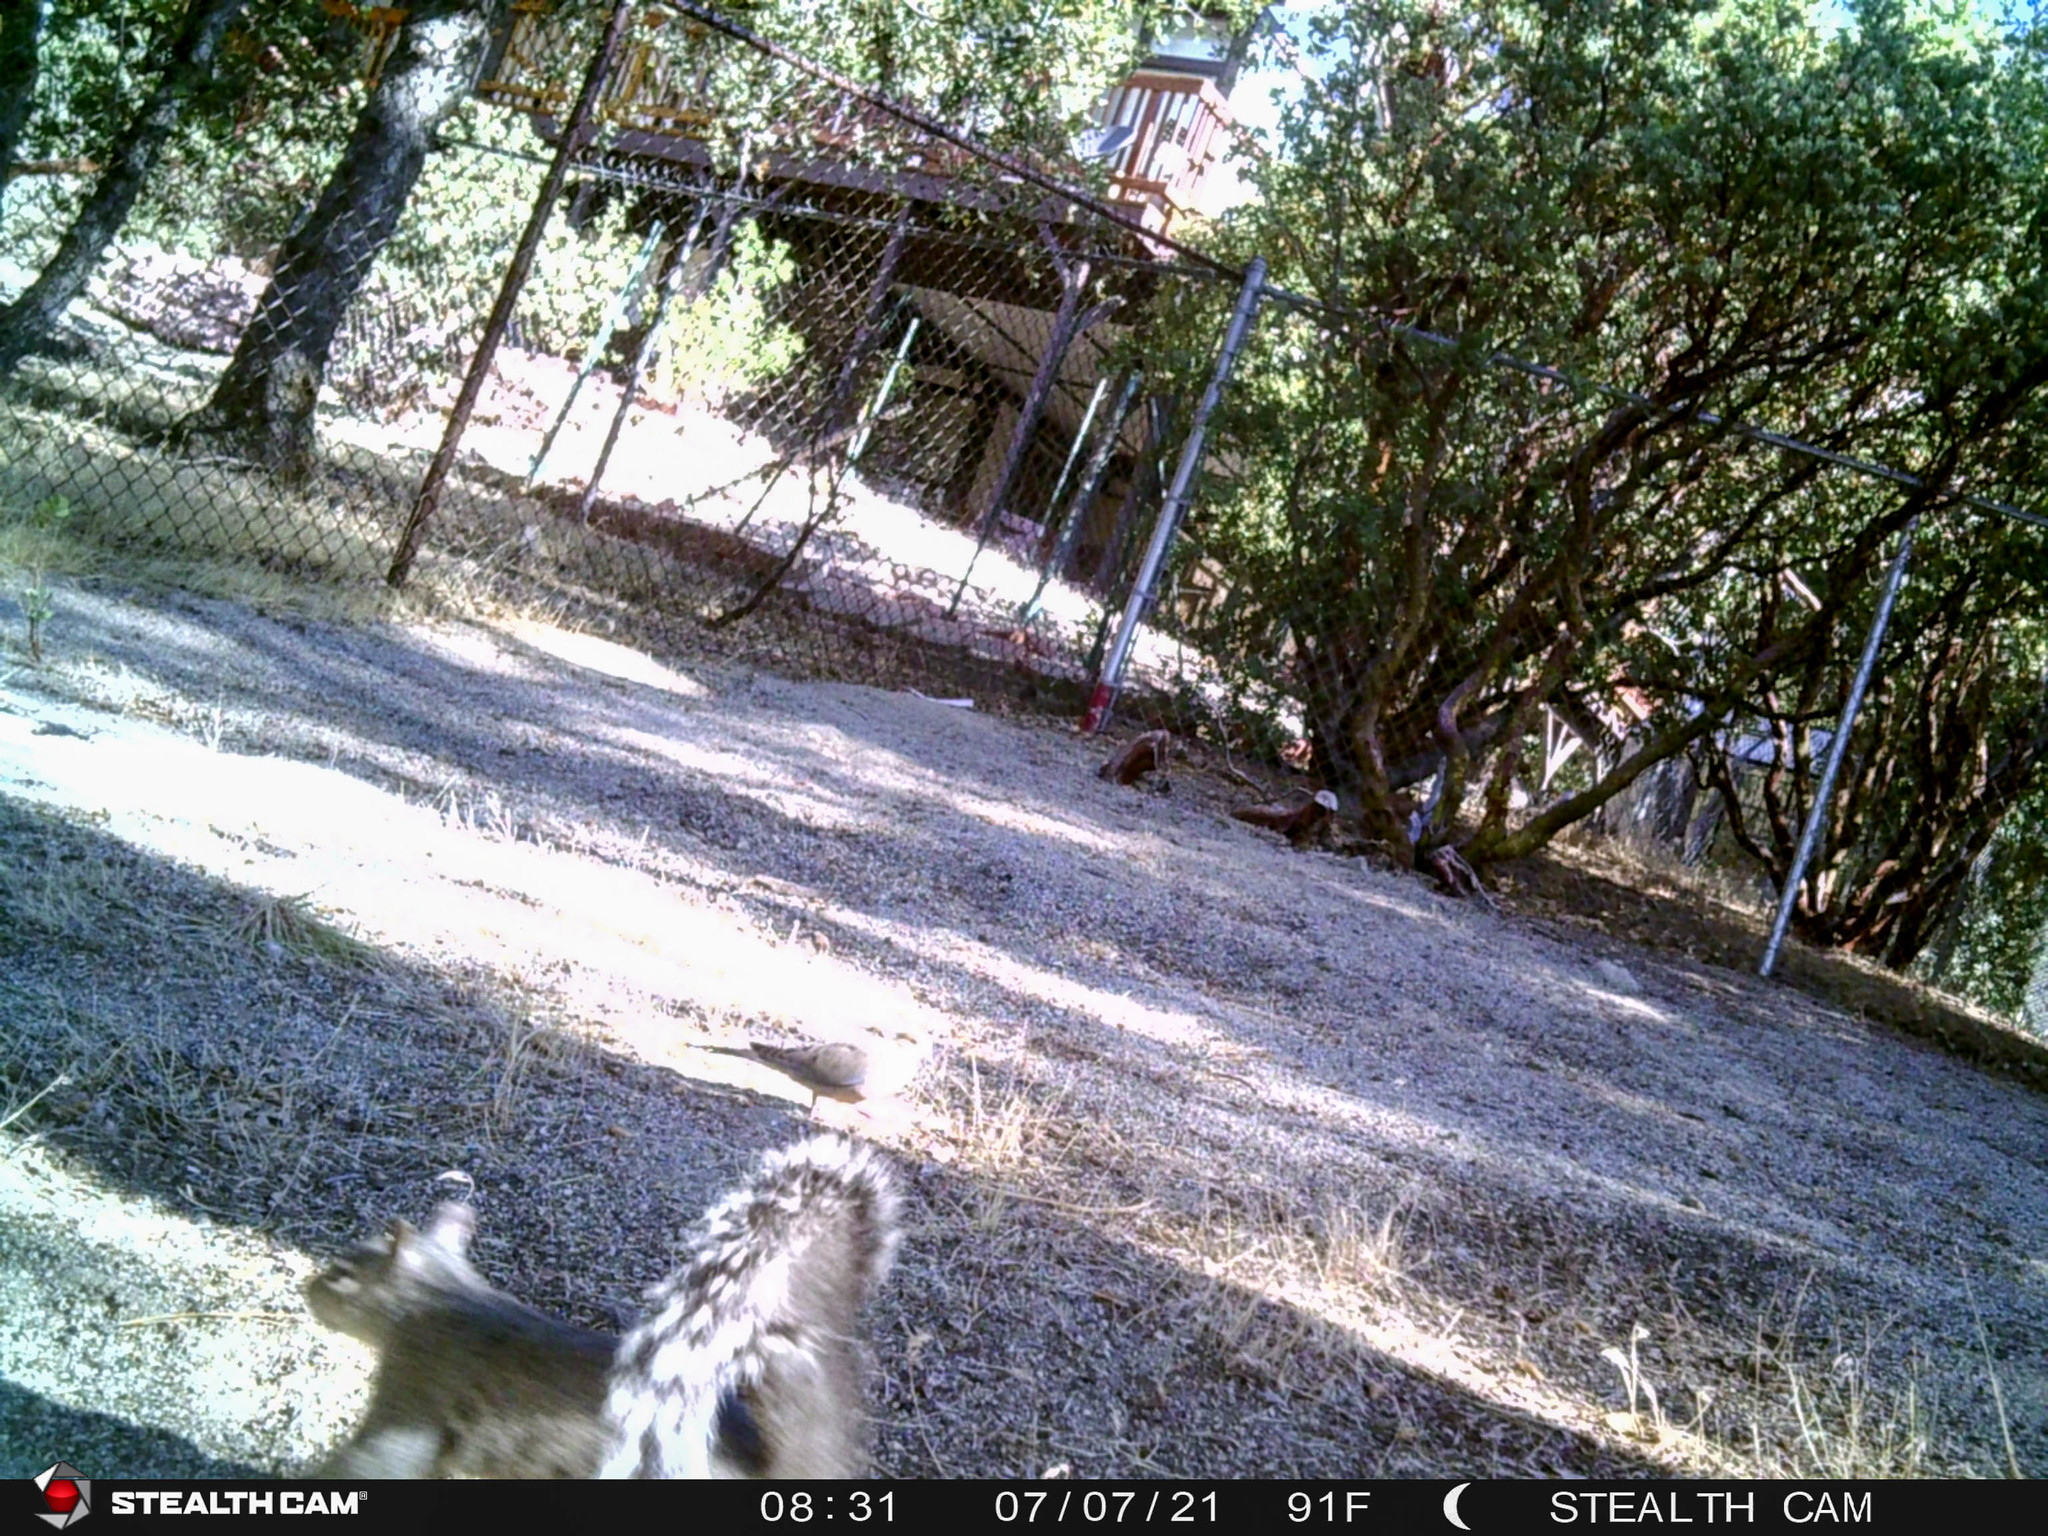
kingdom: Animalia
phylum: Chordata
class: Mammalia
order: Rodentia
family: Sciuridae
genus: Sciurus
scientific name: Sciurus griseus
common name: Western gray squirrel
